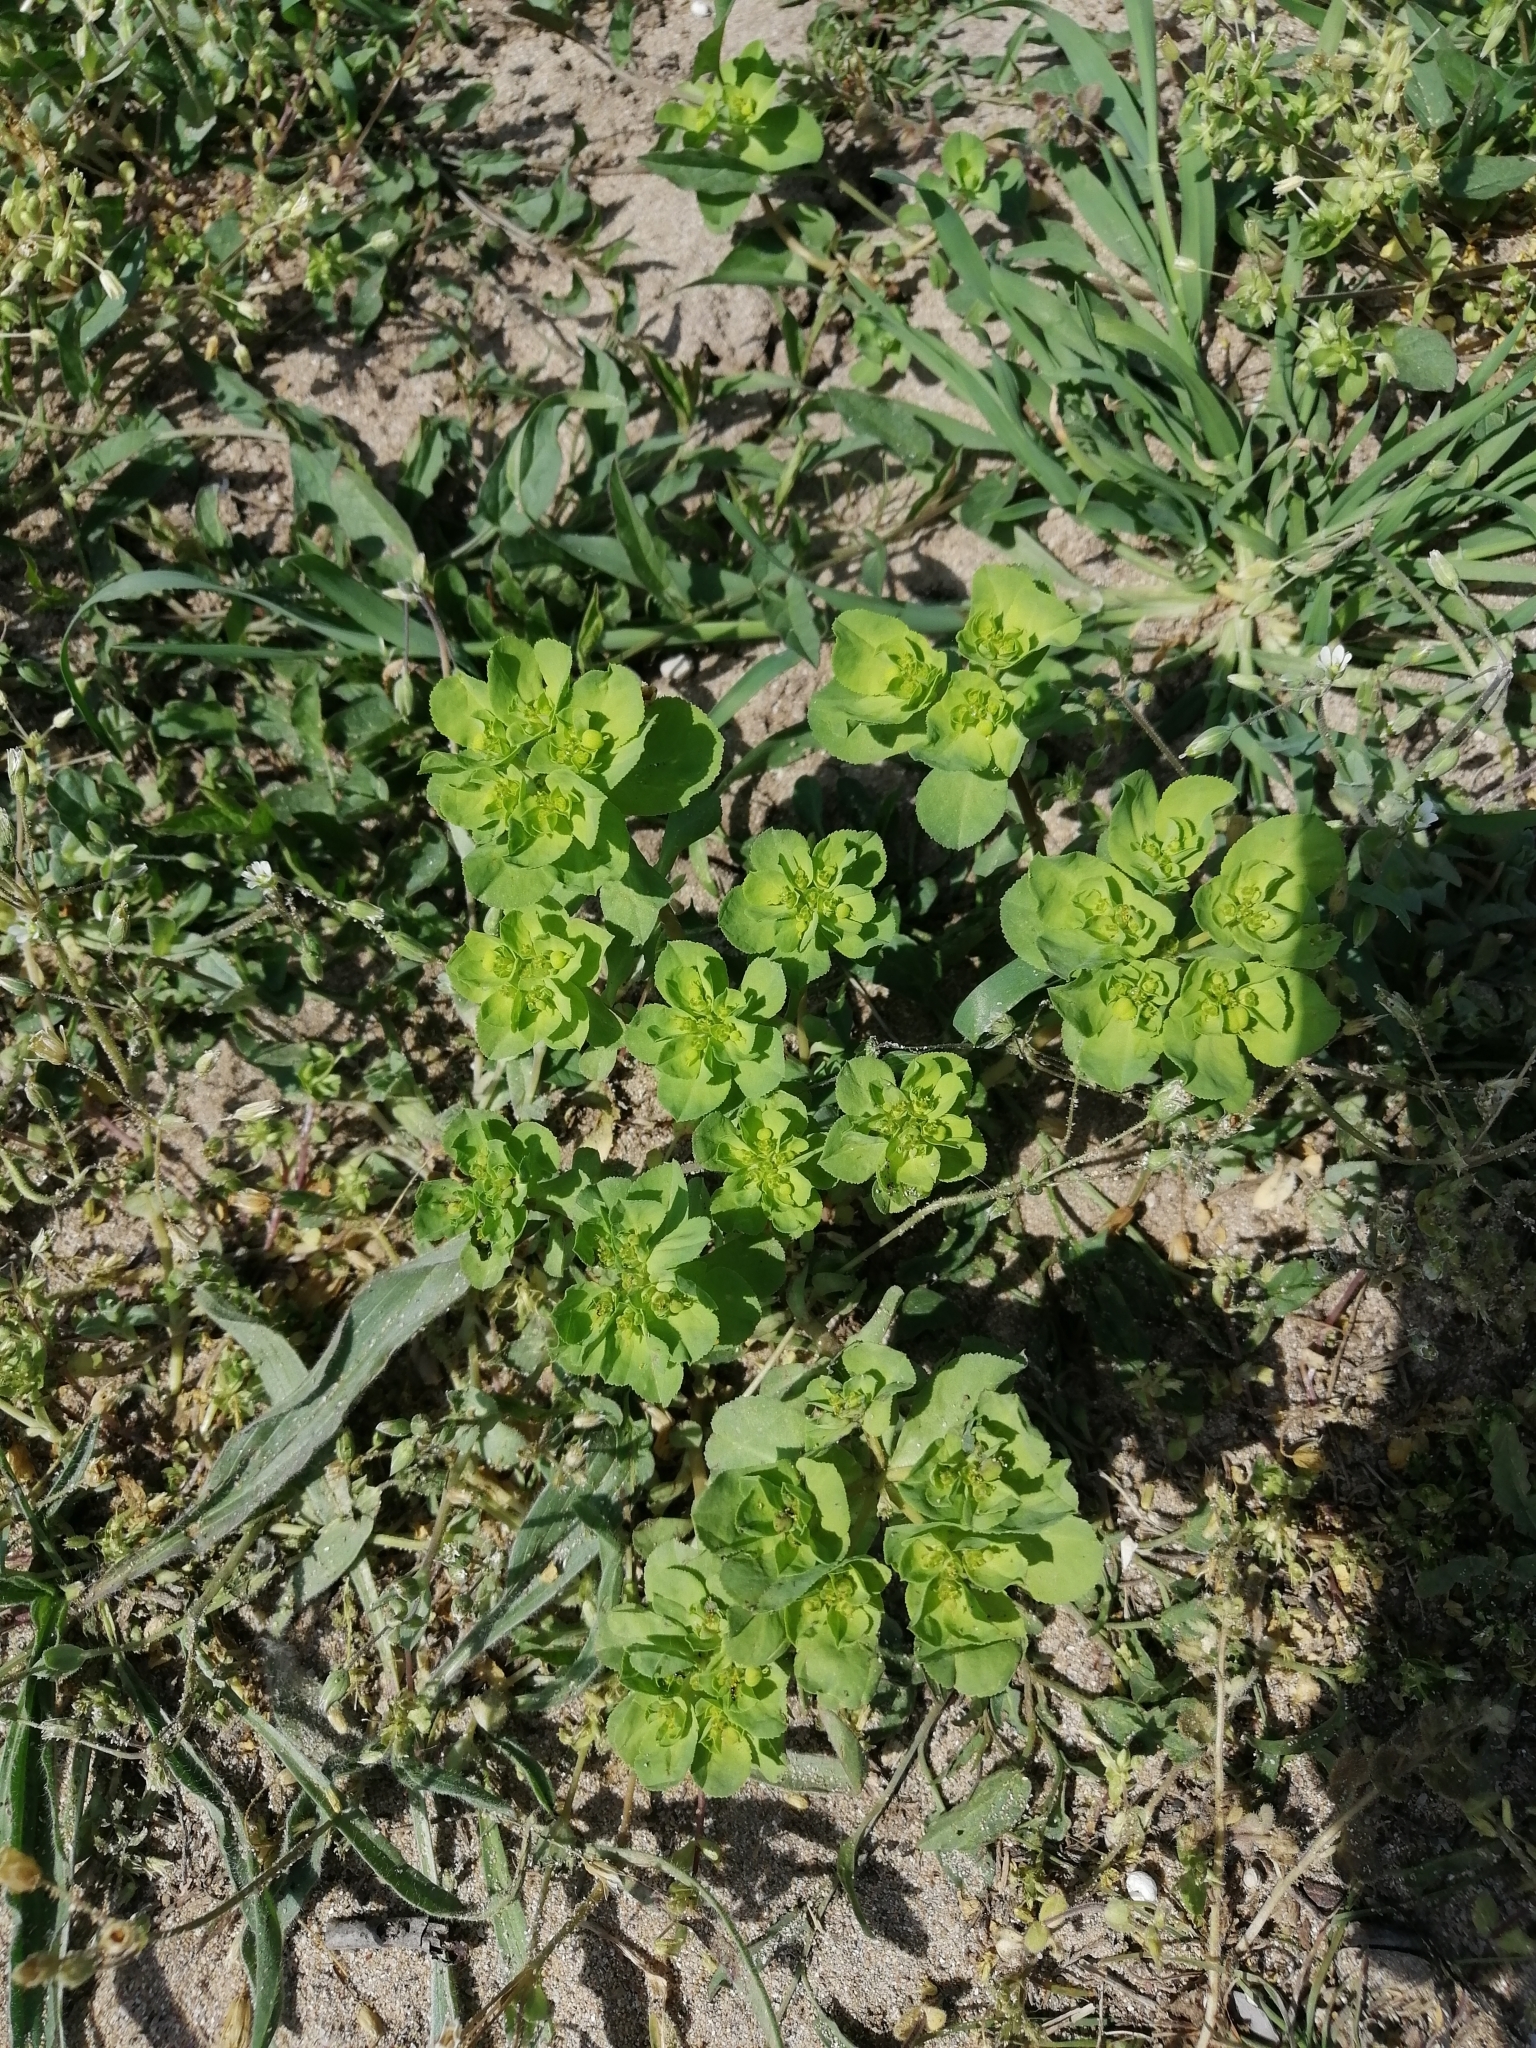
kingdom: Plantae
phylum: Tracheophyta
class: Magnoliopsida
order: Malpighiales
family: Euphorbiaceae
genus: Euphorbia
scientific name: Euphorbia helioscopia
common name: Sun spurge
